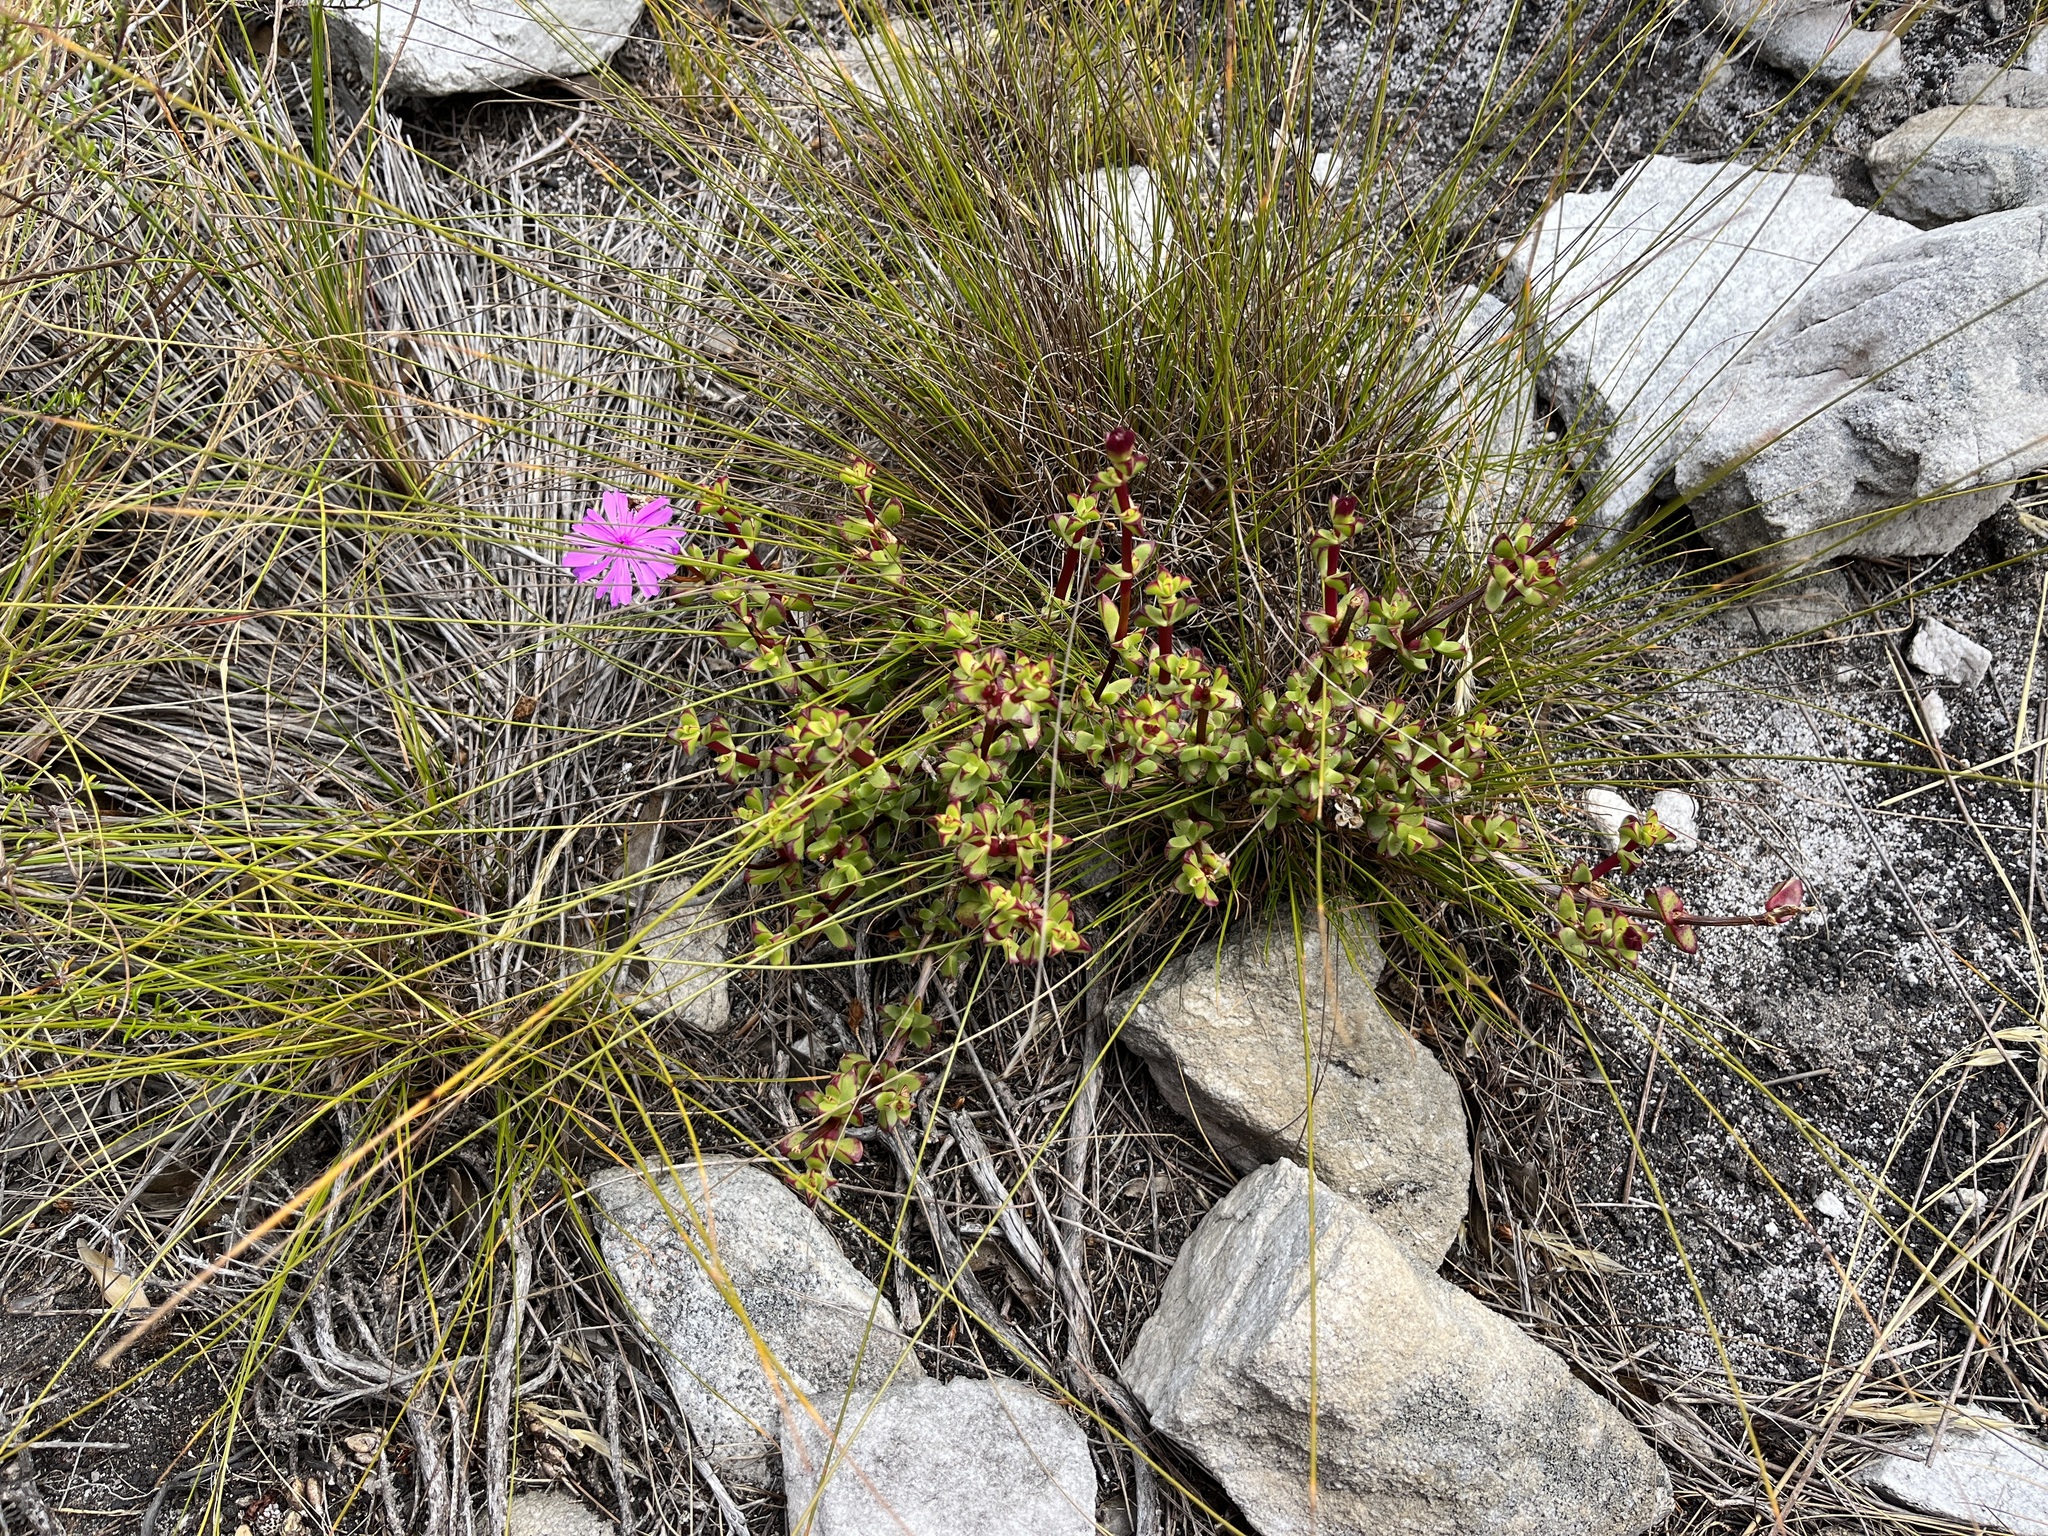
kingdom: Plantae
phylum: Tracheophyta
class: Magnoliopsida
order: Caryophyllales
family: Aizoaceae
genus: Erepsia
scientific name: Erepsia inclaudens
